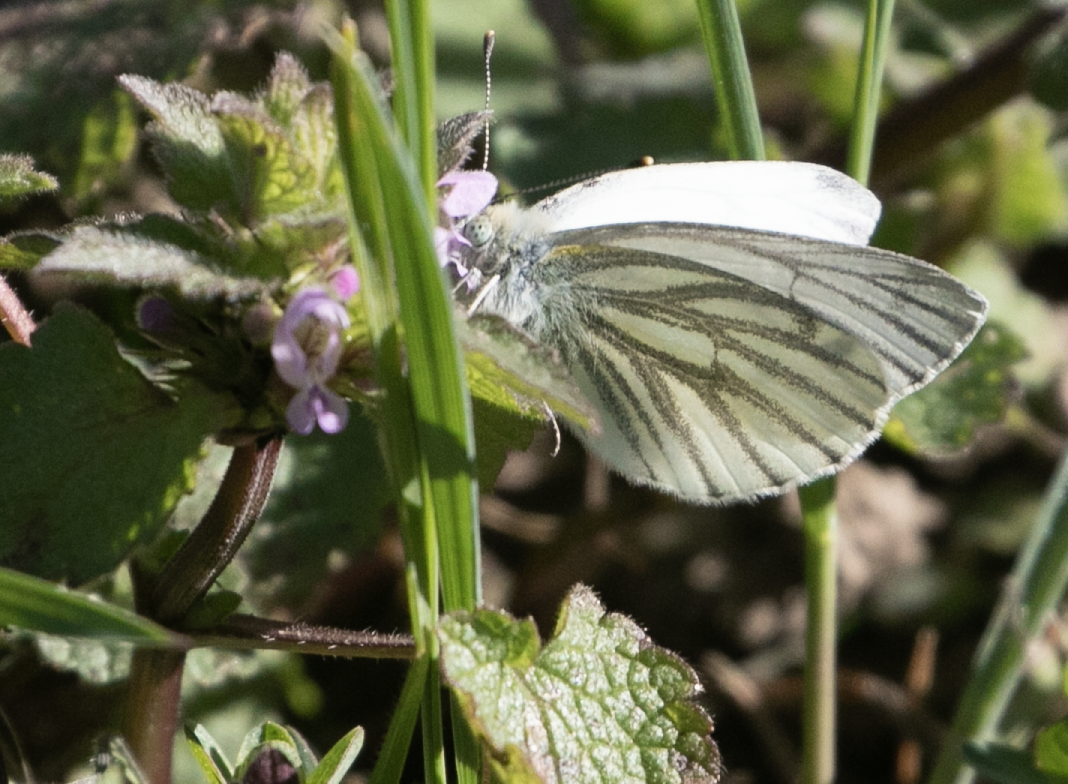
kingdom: Animalia
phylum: Arthropoda
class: Insecta
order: Lepidoptera
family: Pieridae
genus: Pieris
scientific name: Pieris napi
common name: Green-veined white
